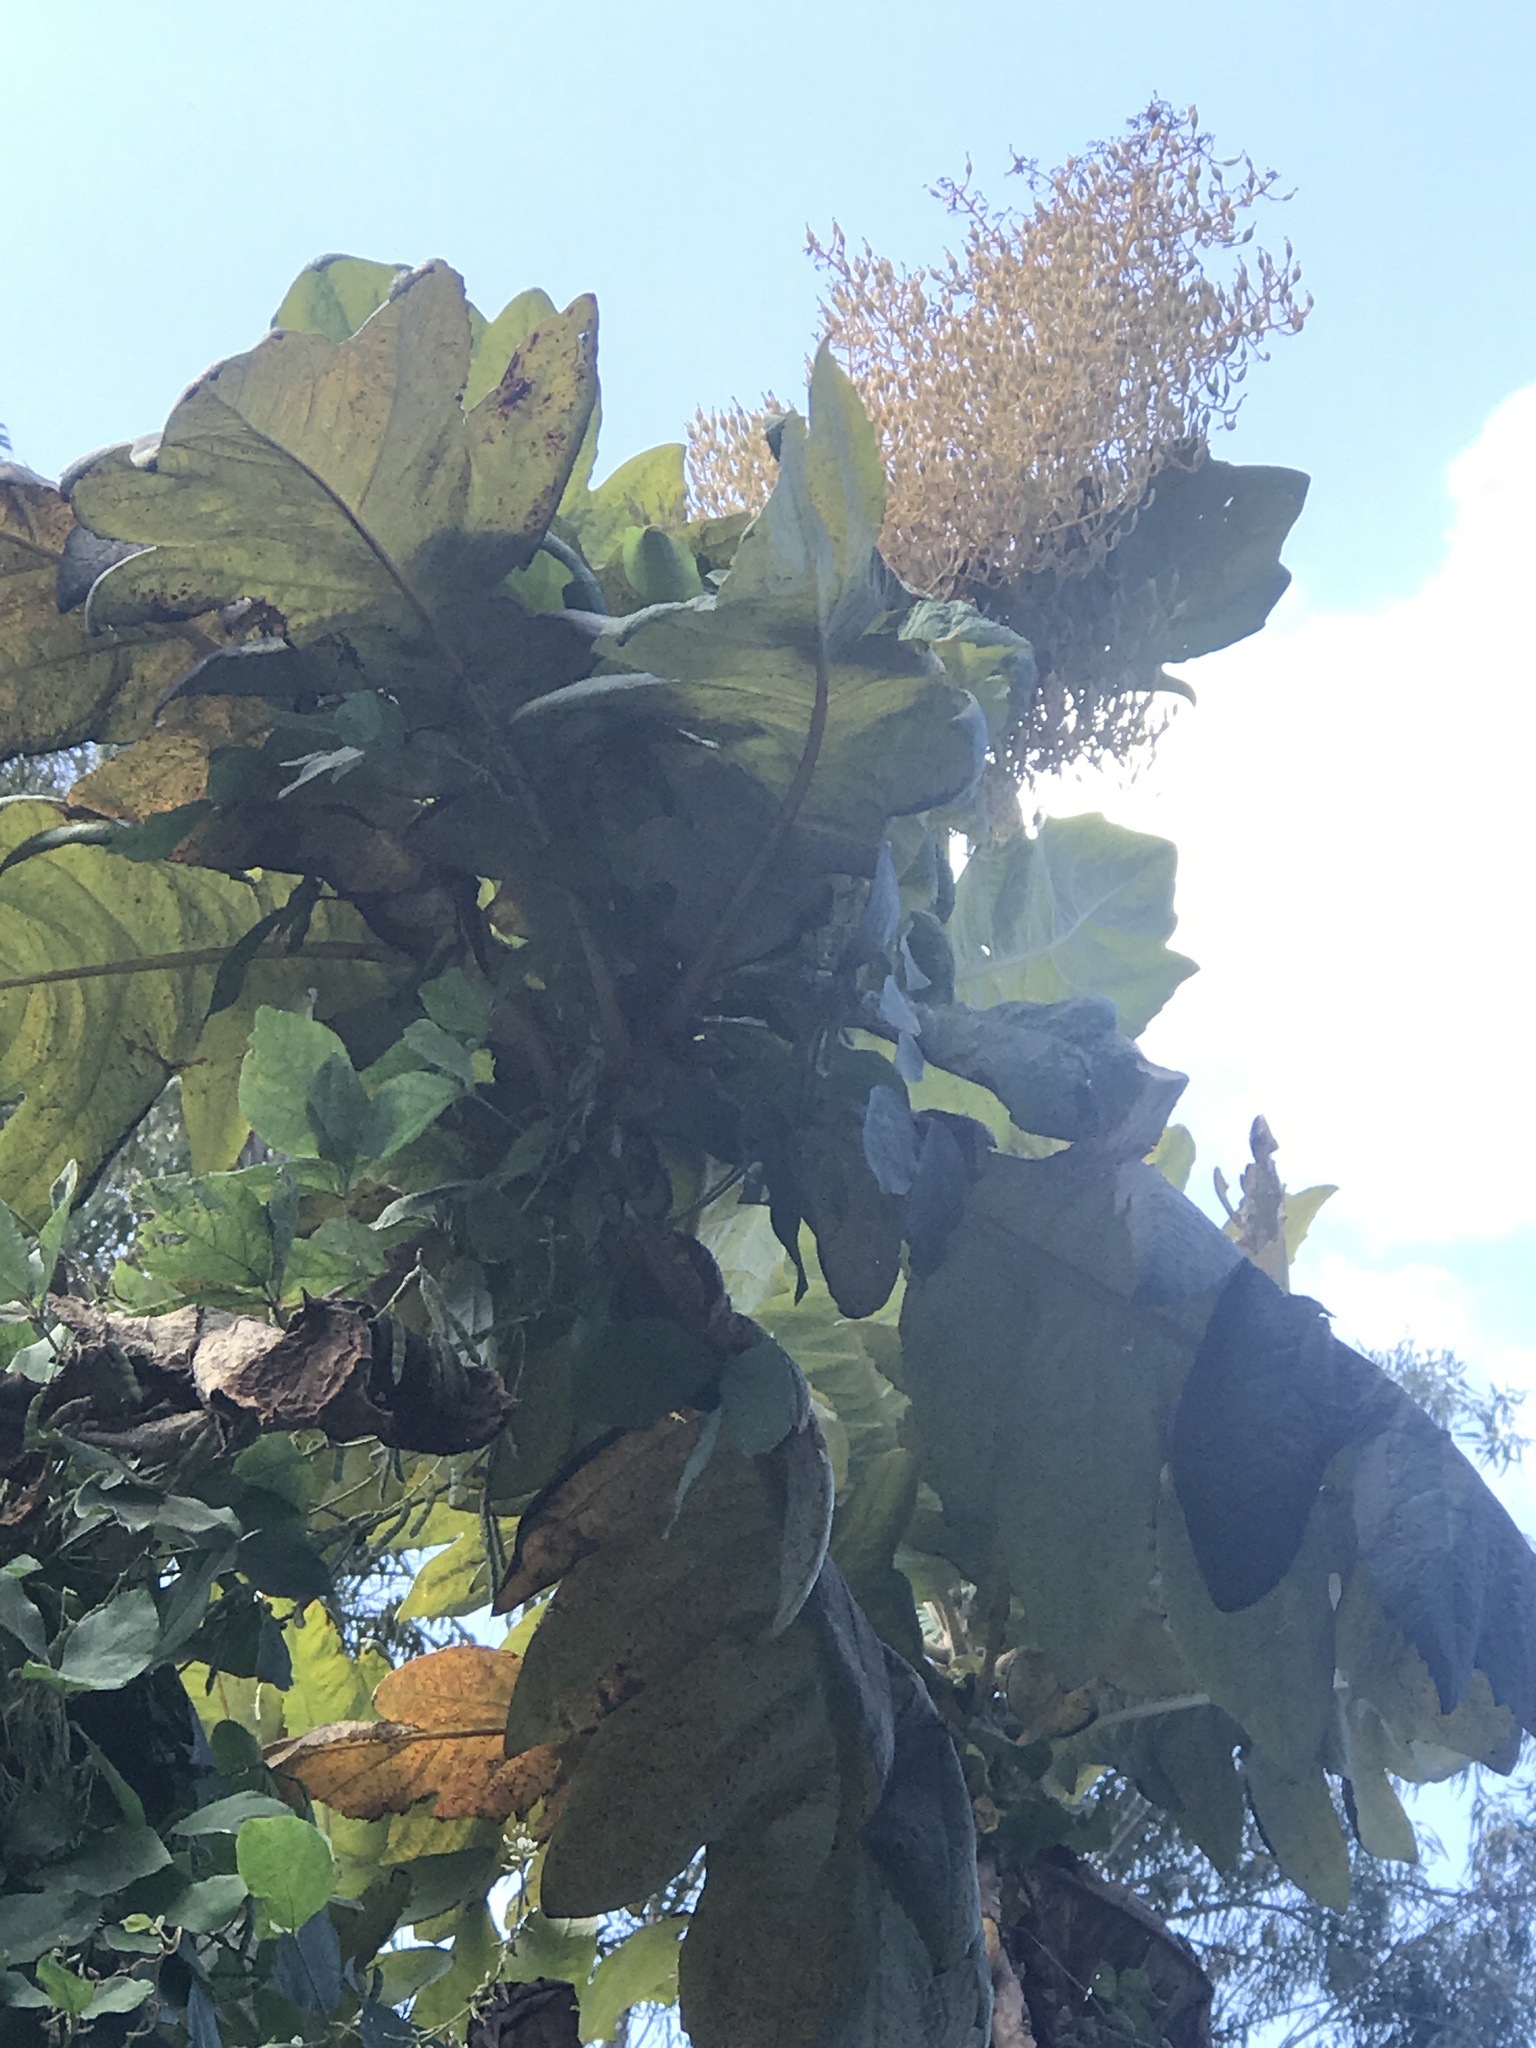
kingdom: Plantae
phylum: Tracheophyta
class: Magnoliopsida
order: Ranunculales
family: Papaveraceae
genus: Bocconia
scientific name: Bocconia frutescens
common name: Tree poppy
